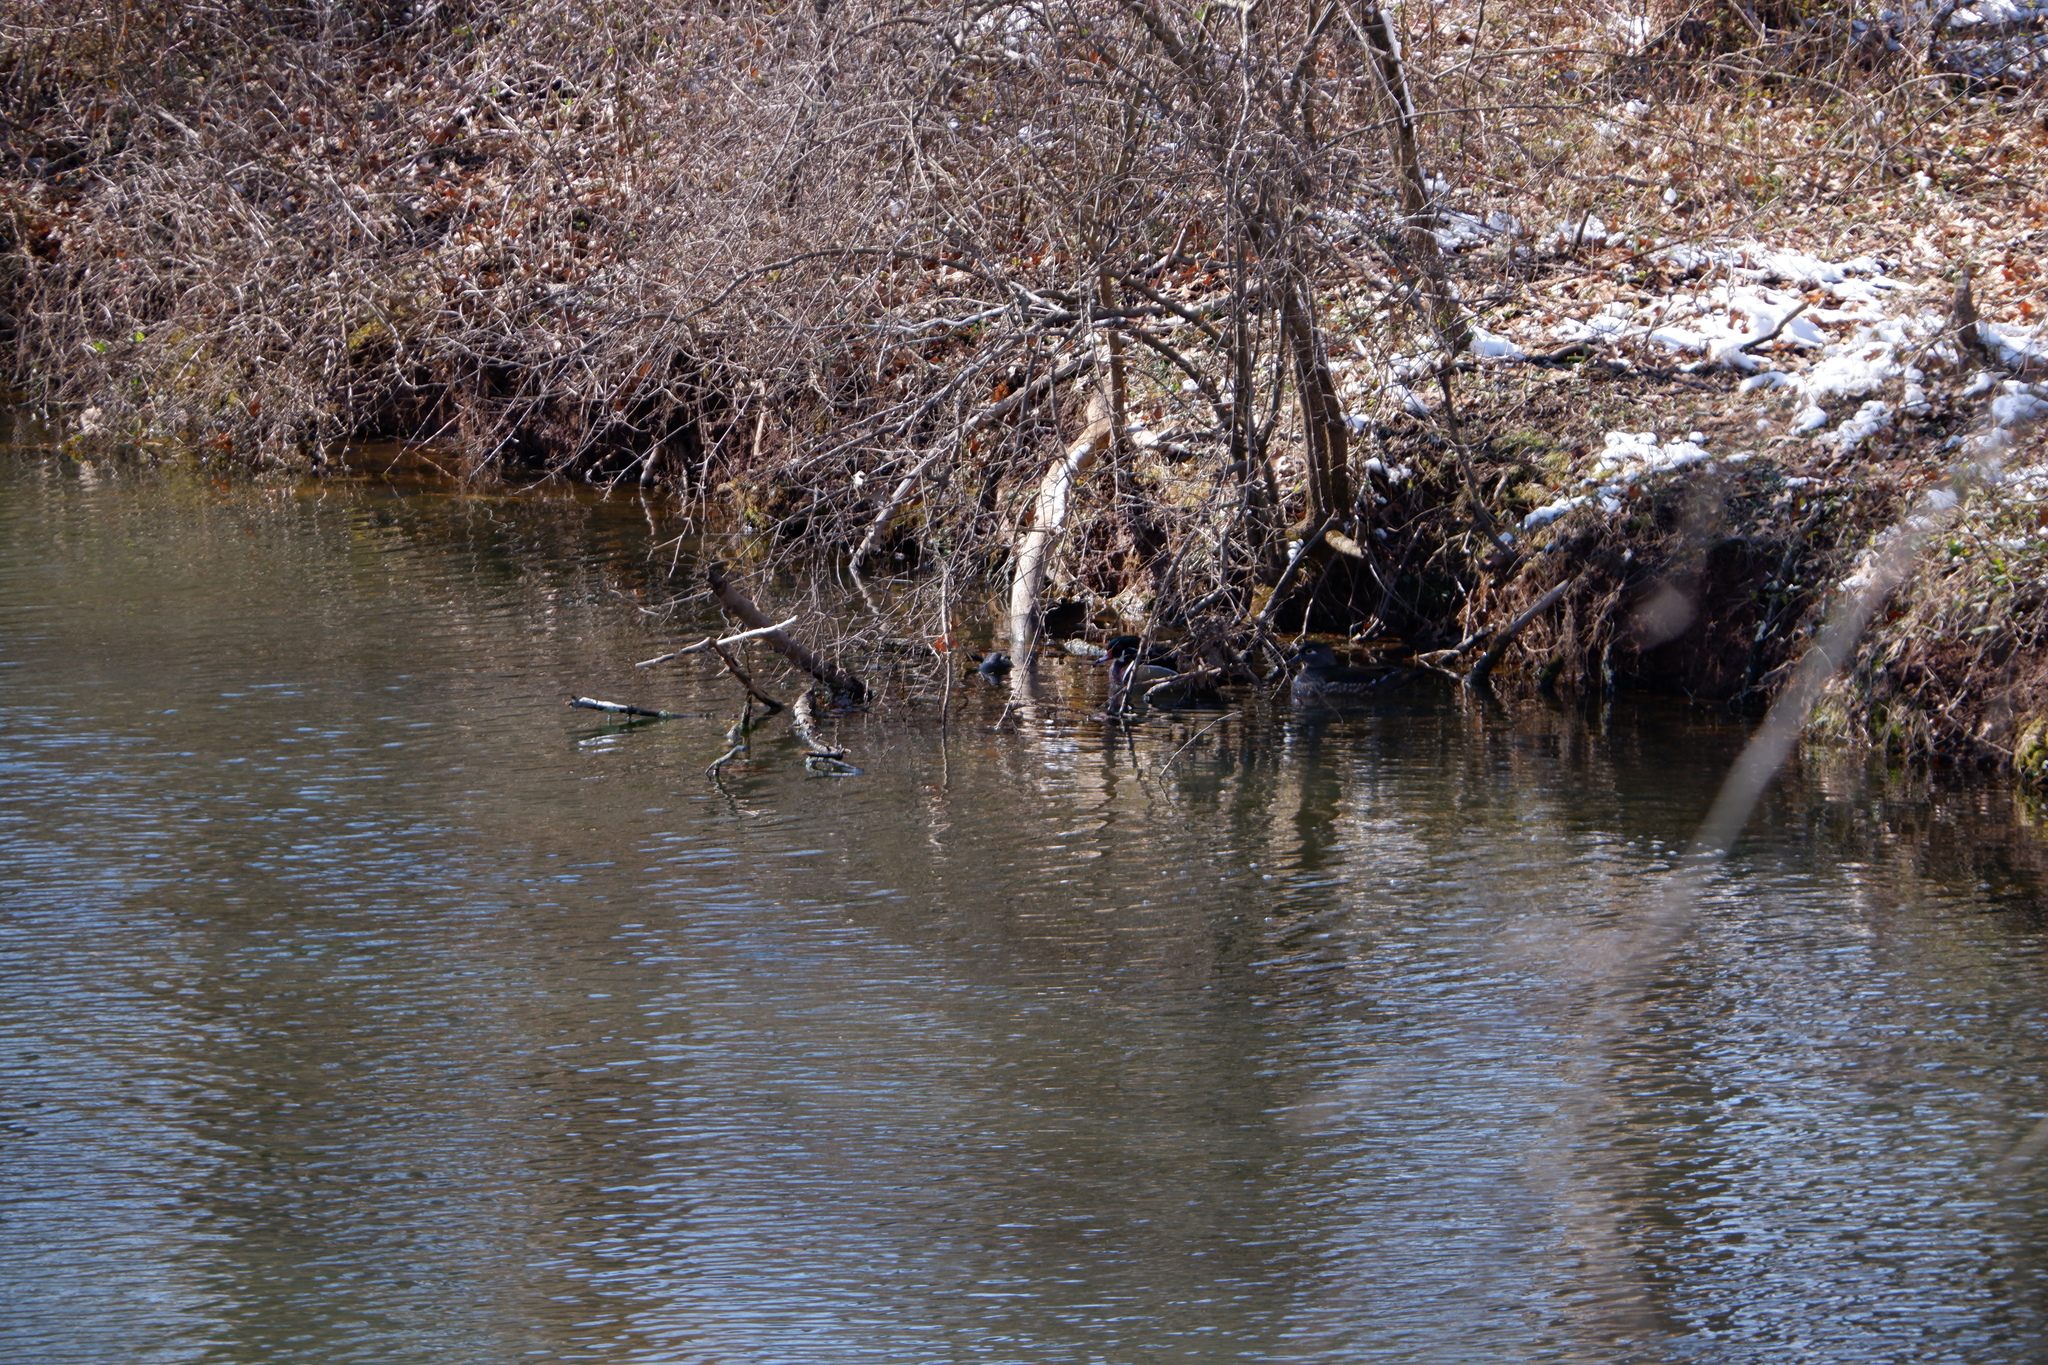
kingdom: Animalia
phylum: Chordata
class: Aves
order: Anseriformes
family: Anatidae
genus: Aix
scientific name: Aix sponsa
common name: Wood duck
